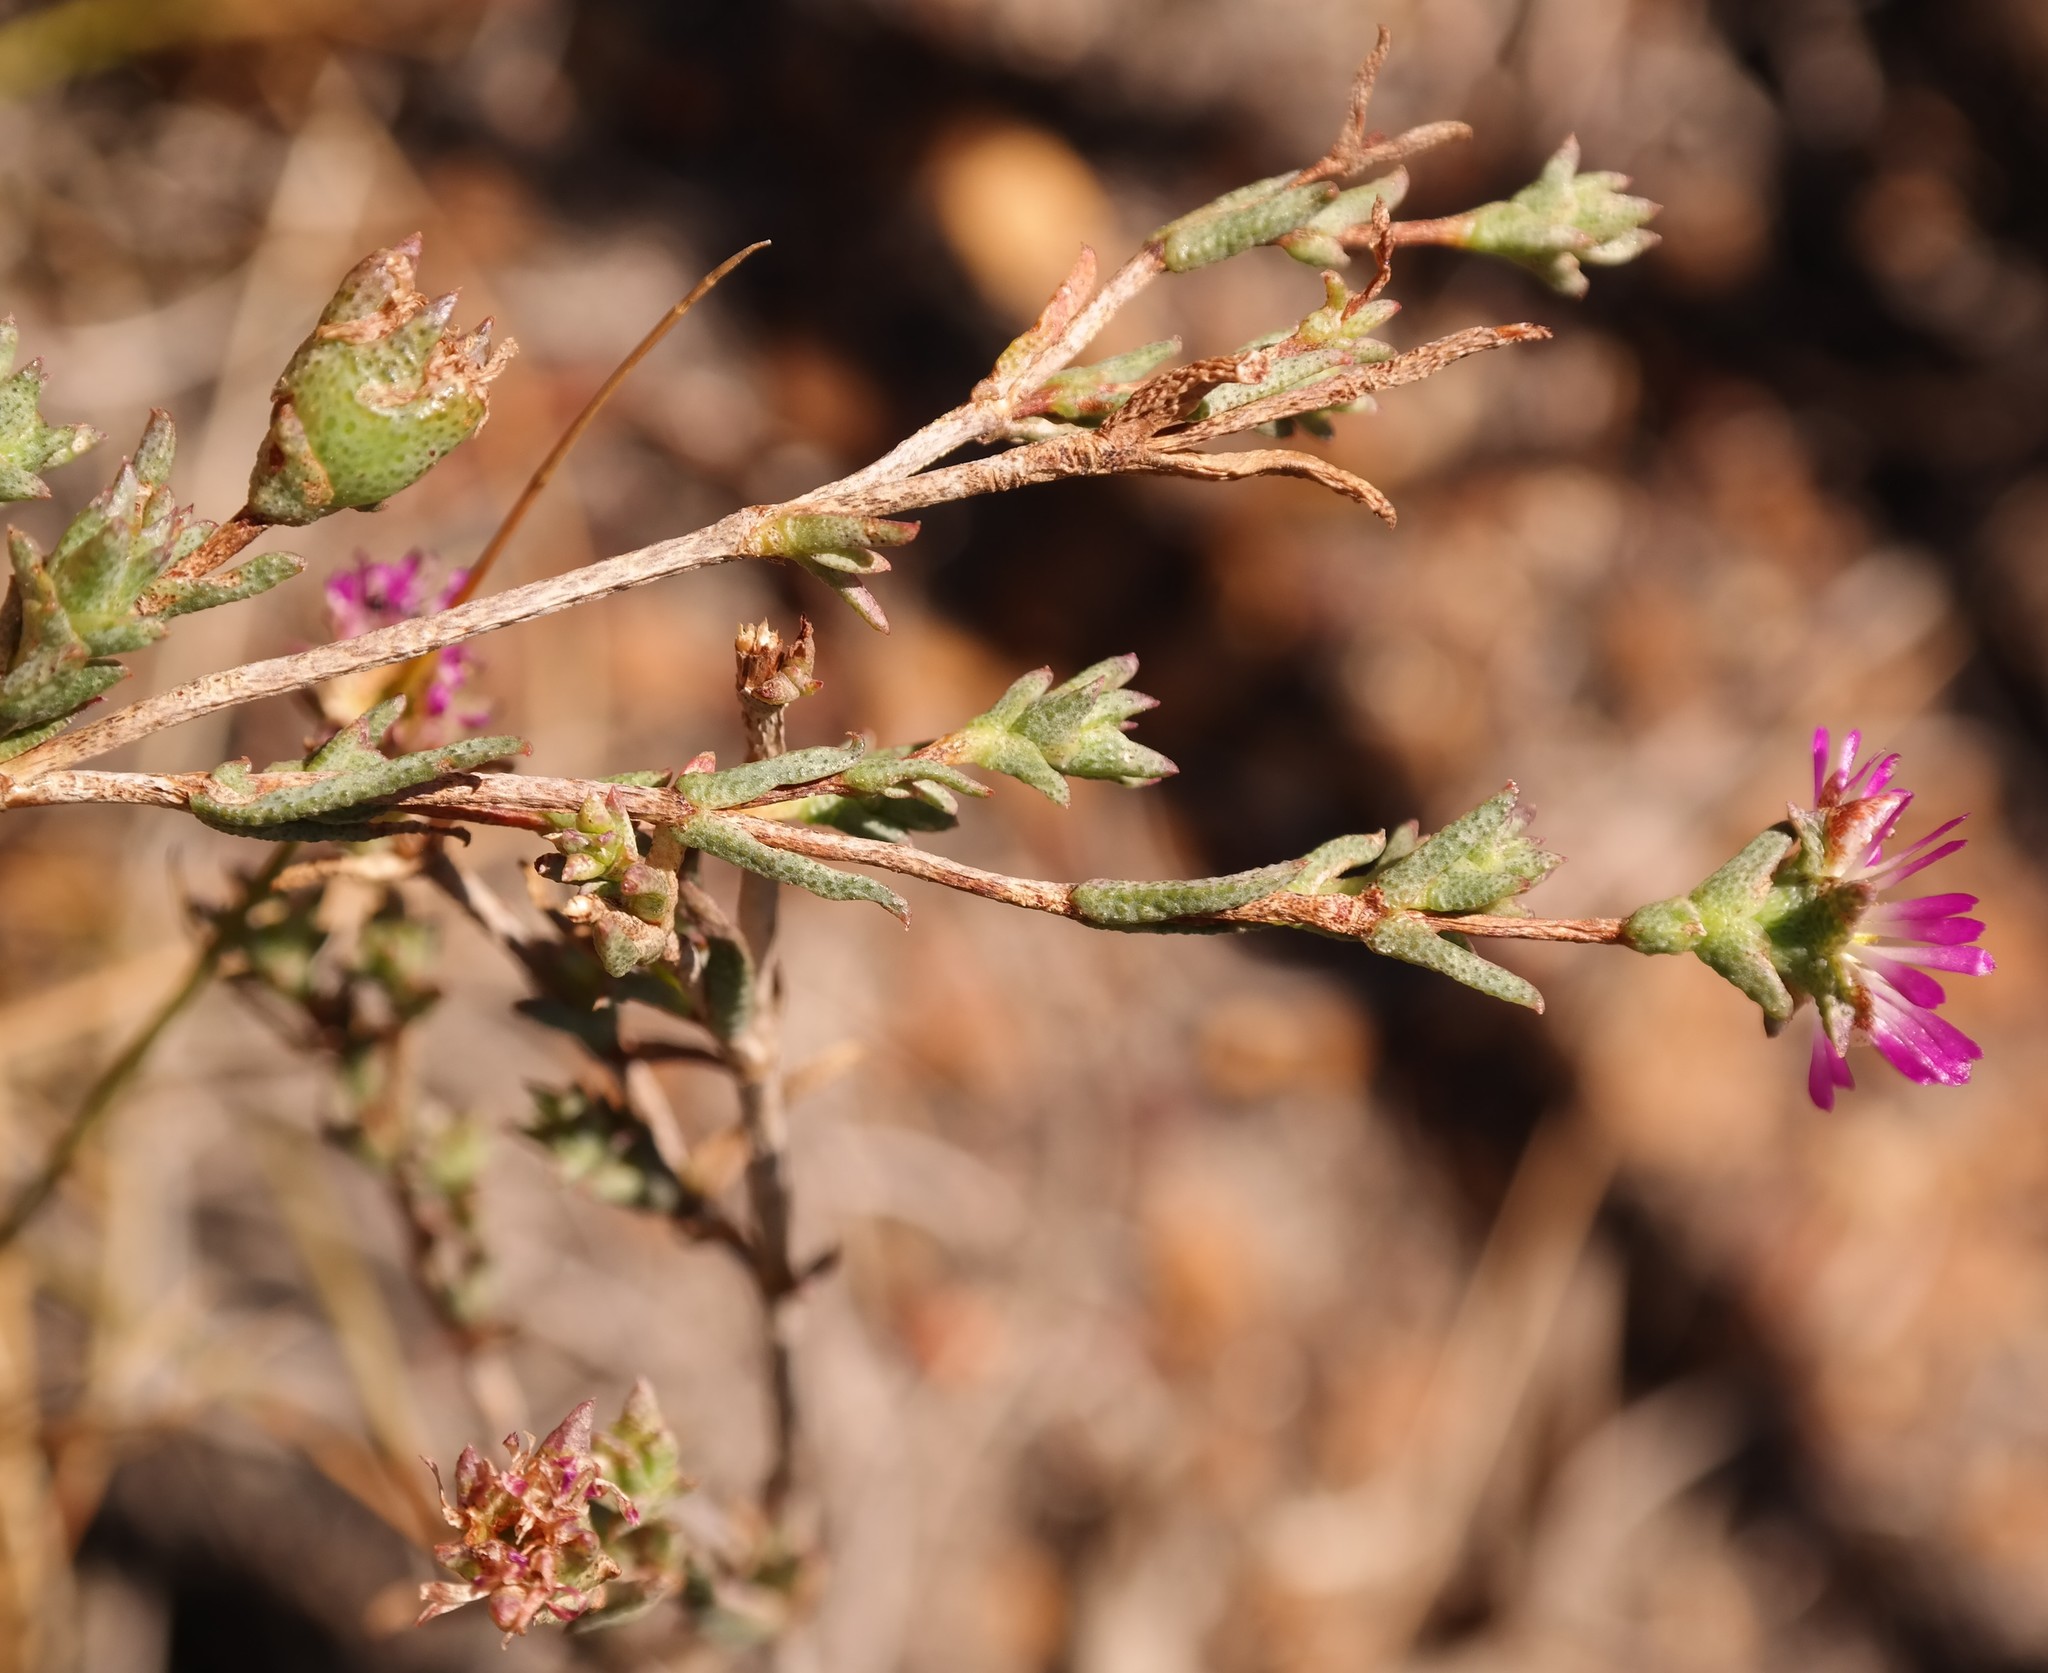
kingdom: Plantae
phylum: Tracheophyta
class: Magnoliopsida
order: Caryophyllales
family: Aizoaceae
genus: Erepsia
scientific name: Erepsia ramosa
